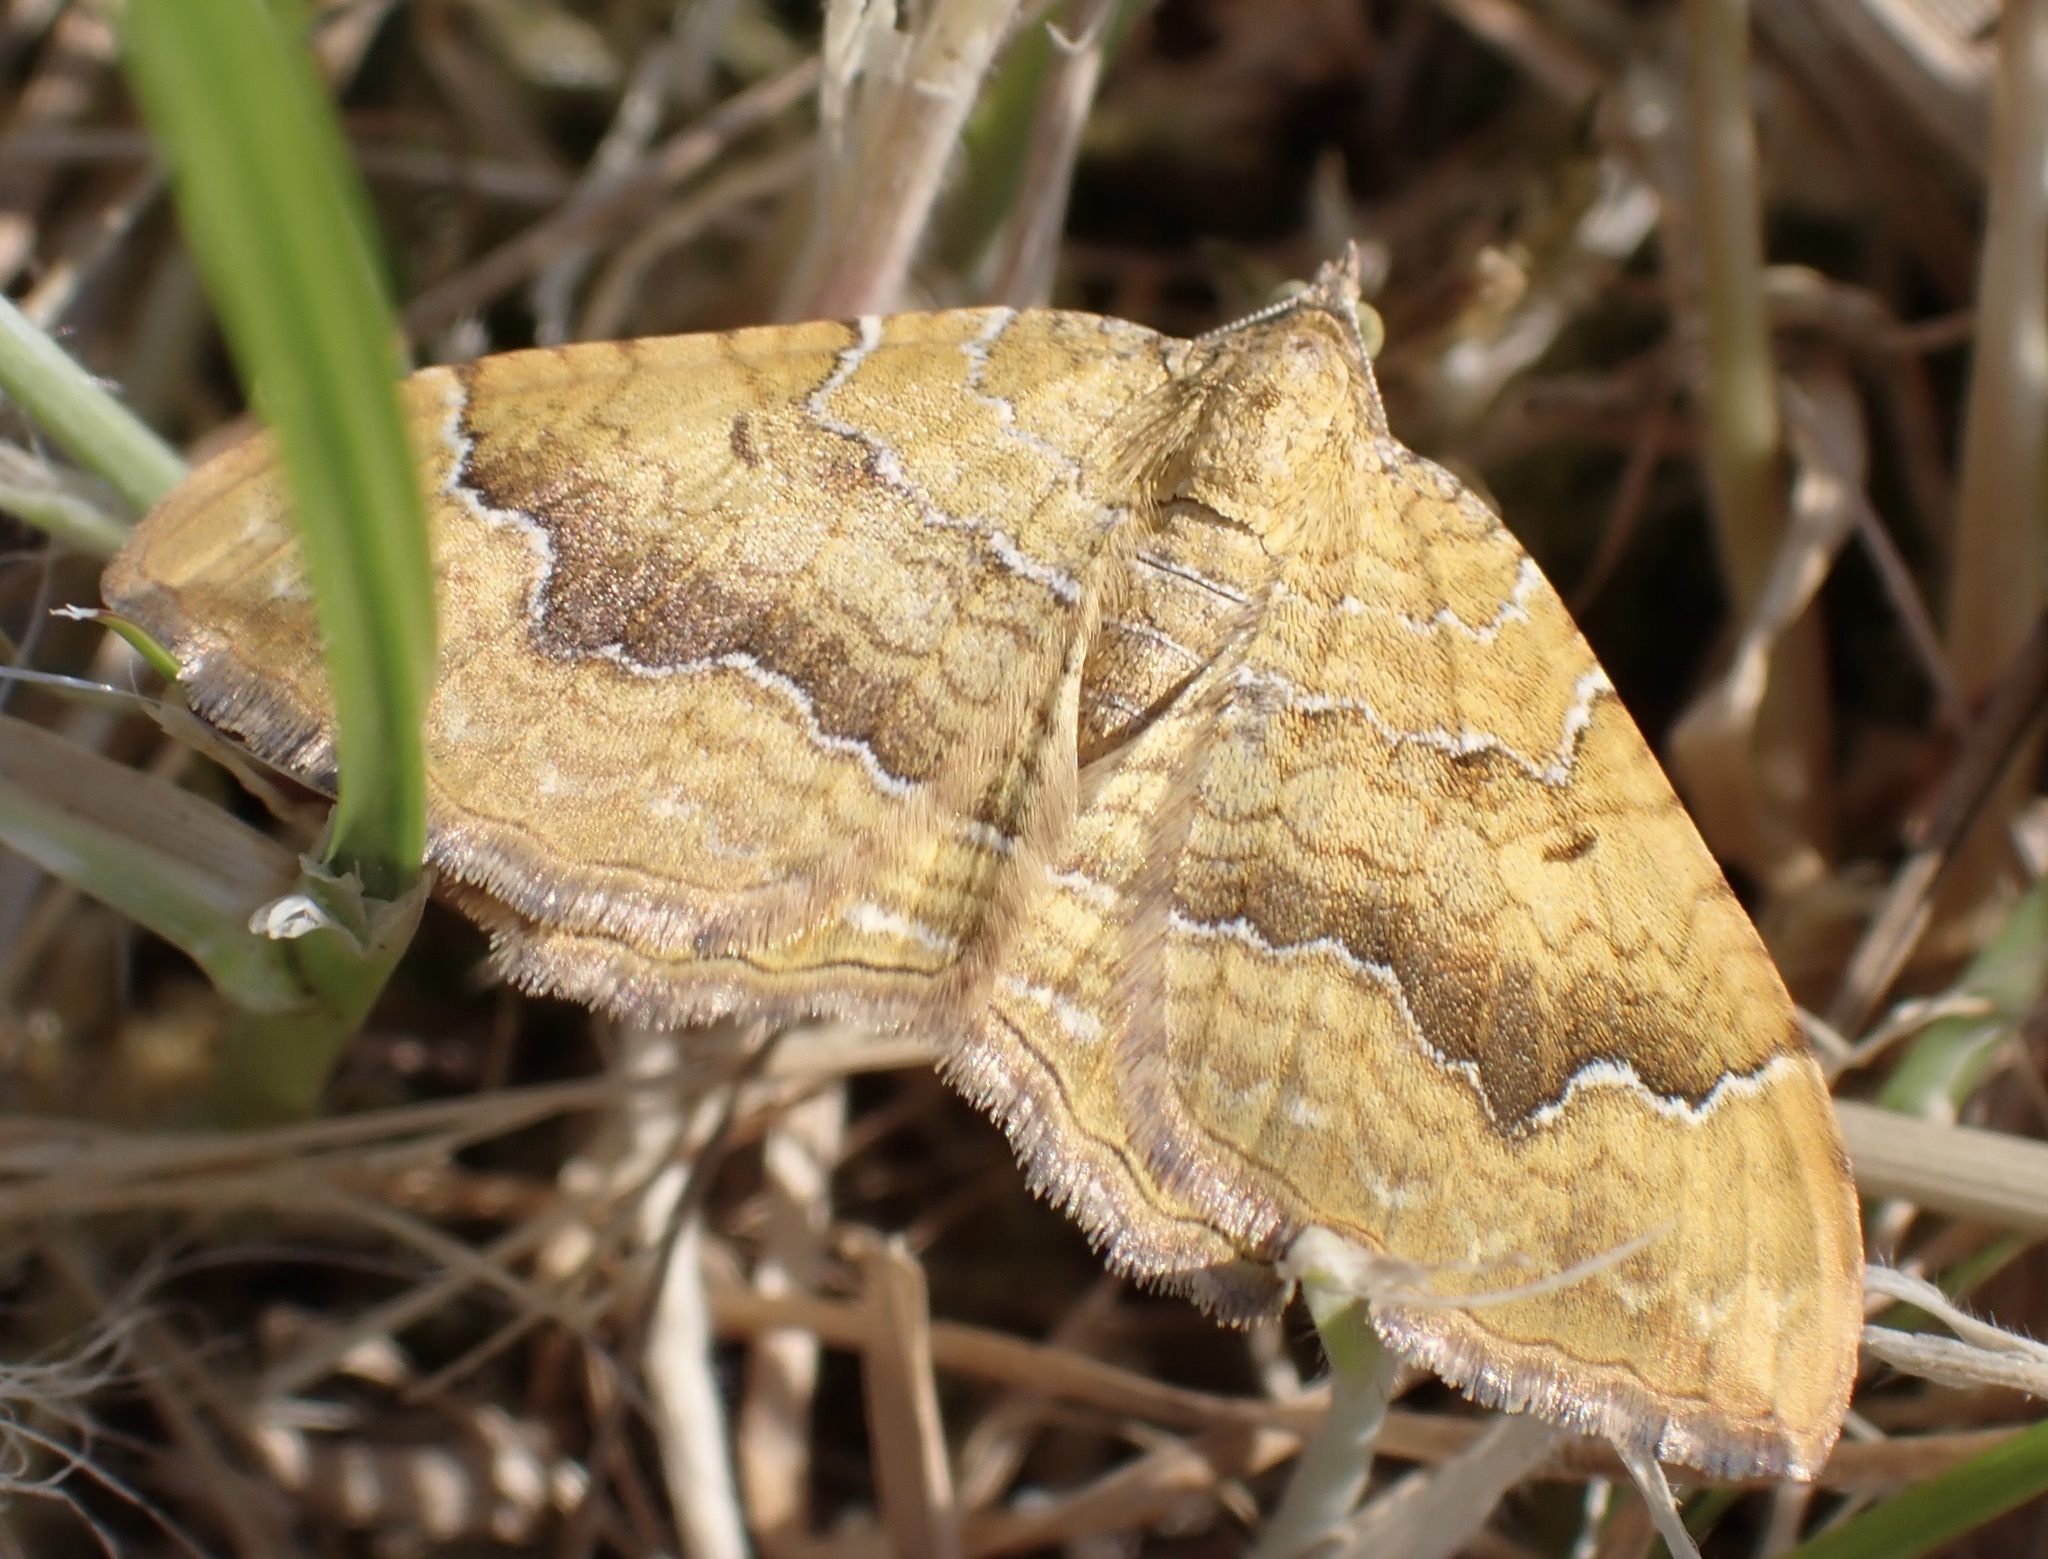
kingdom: Animalia
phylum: Arthropoda
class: Insecta
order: Lepidoptera
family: Geometridae
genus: Camptogramma
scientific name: Camptogramma bilineata
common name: Yellow shell
